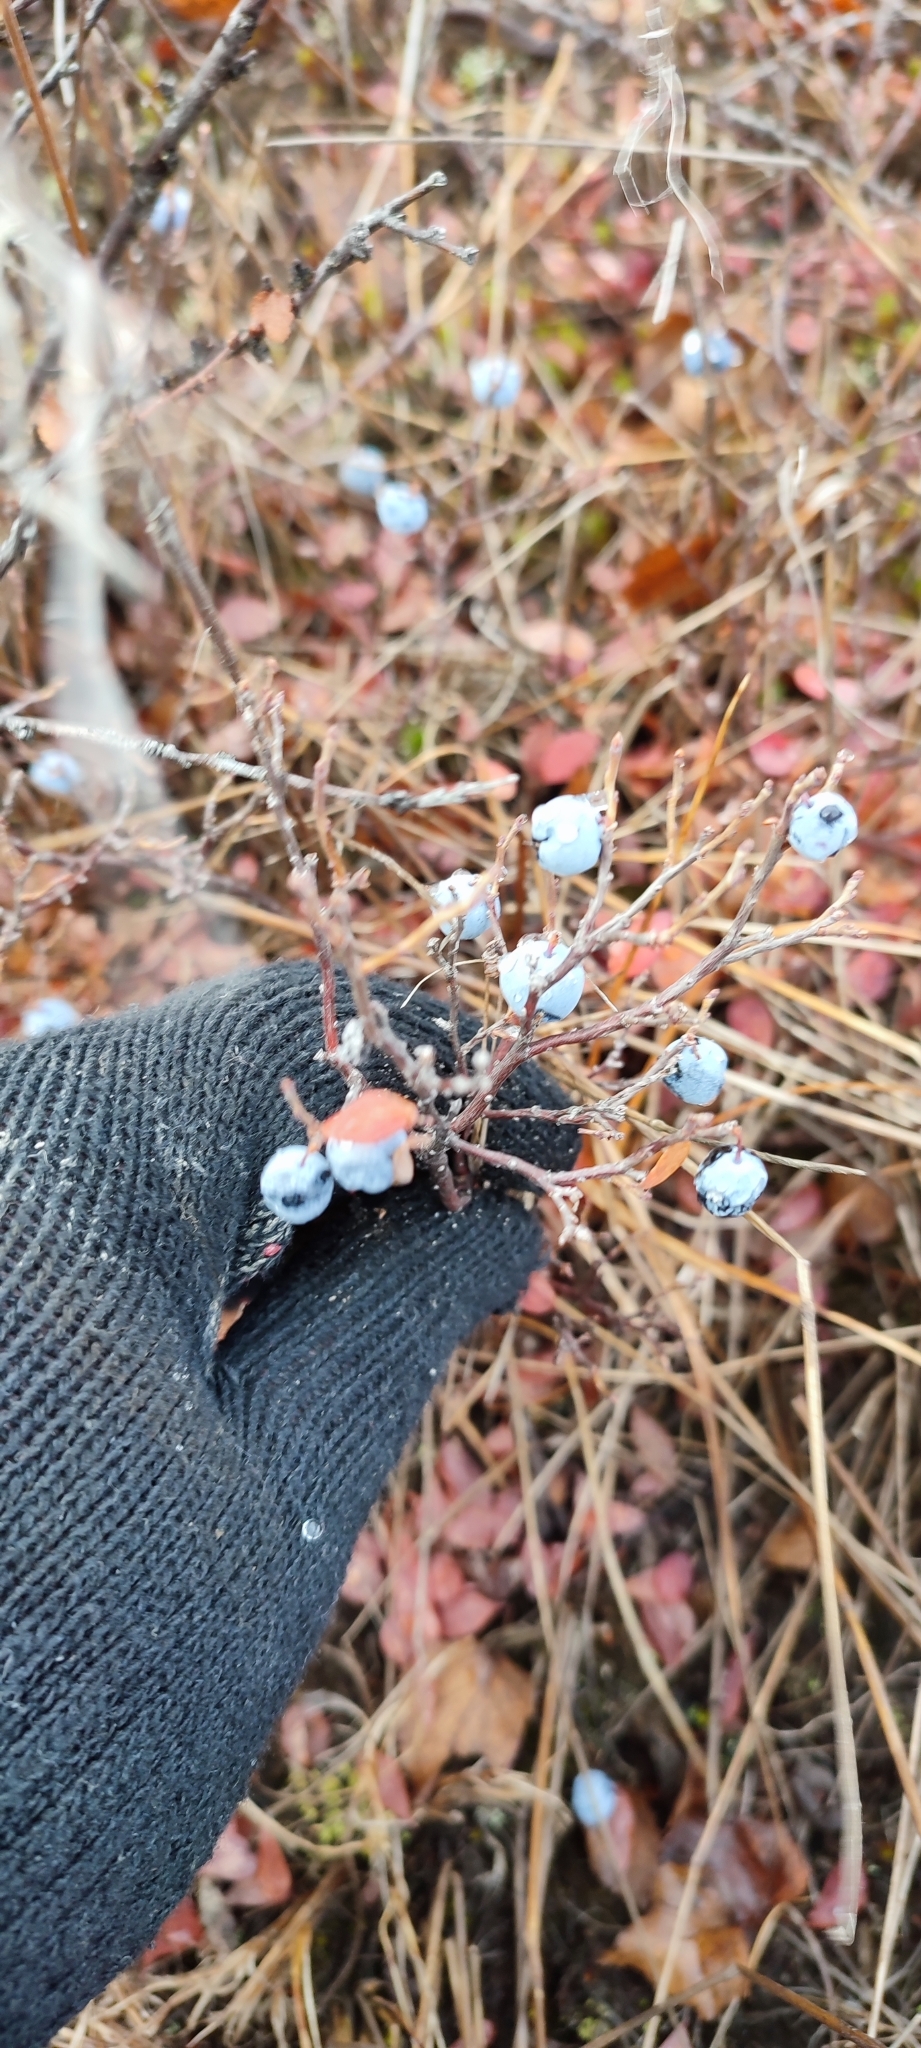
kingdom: Plantae
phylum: Tracheophyta
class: Magnoliopsida
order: Ericales
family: Ericaceae
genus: Vaccinium
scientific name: Vaccinium uliginosum
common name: Bog bilberry
